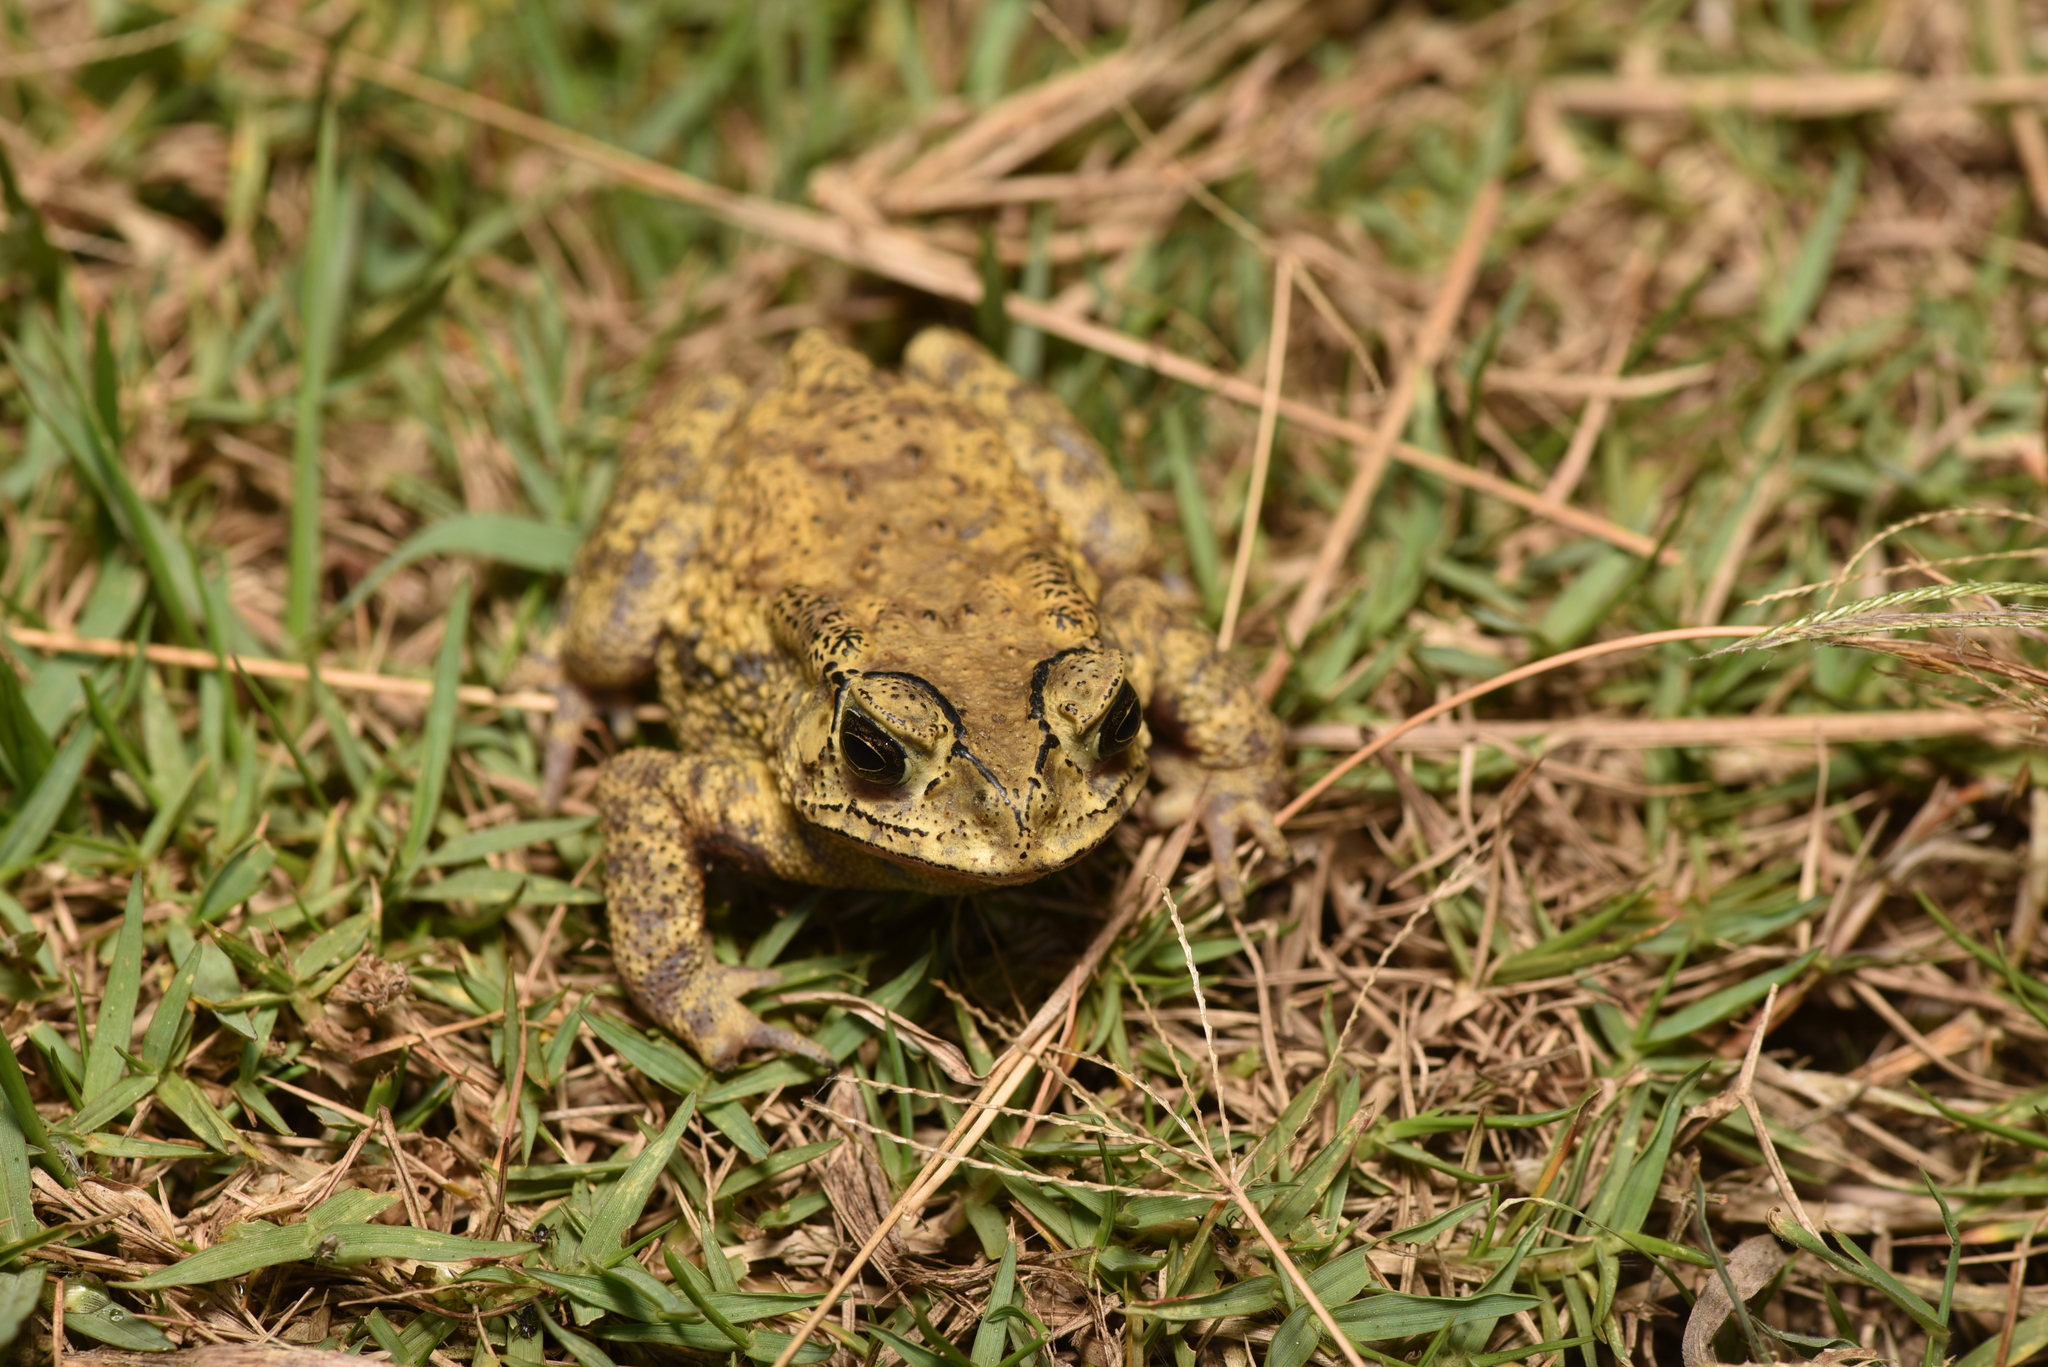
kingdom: Animalia
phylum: Chordata
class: Amphibia
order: Anura
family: Bufonidae
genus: Duttaphrynus
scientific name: Duttaphrynus melanostictus
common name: Common sunda toad
